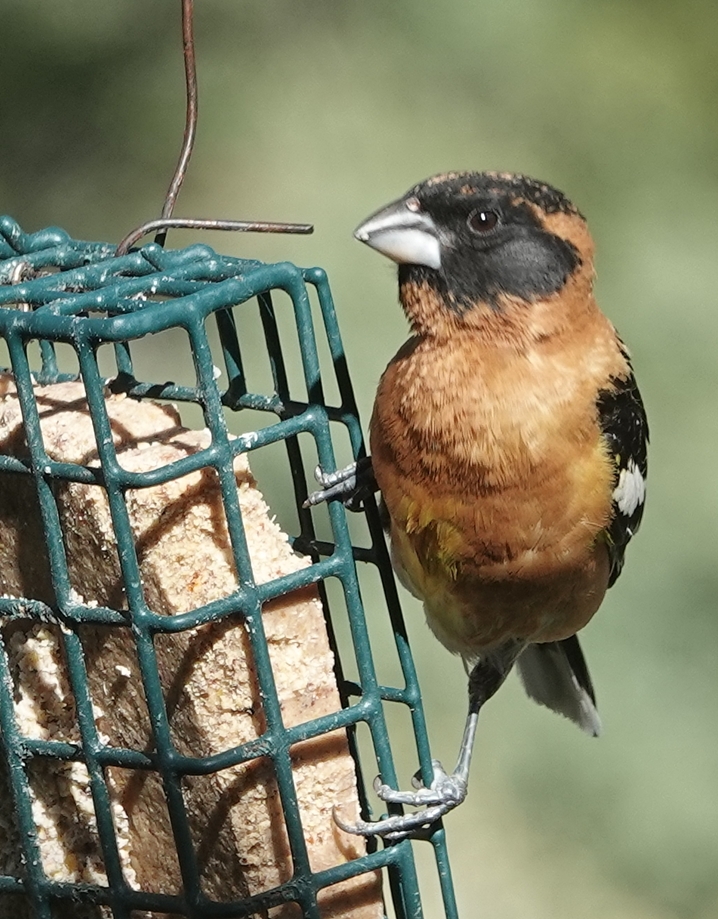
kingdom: Animalia
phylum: Chordata
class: Aves
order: Passeriformes
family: Cardinalidae
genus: Pheucticus
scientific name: Pheucticus melanocephalus
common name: Black-headed grosbeak
